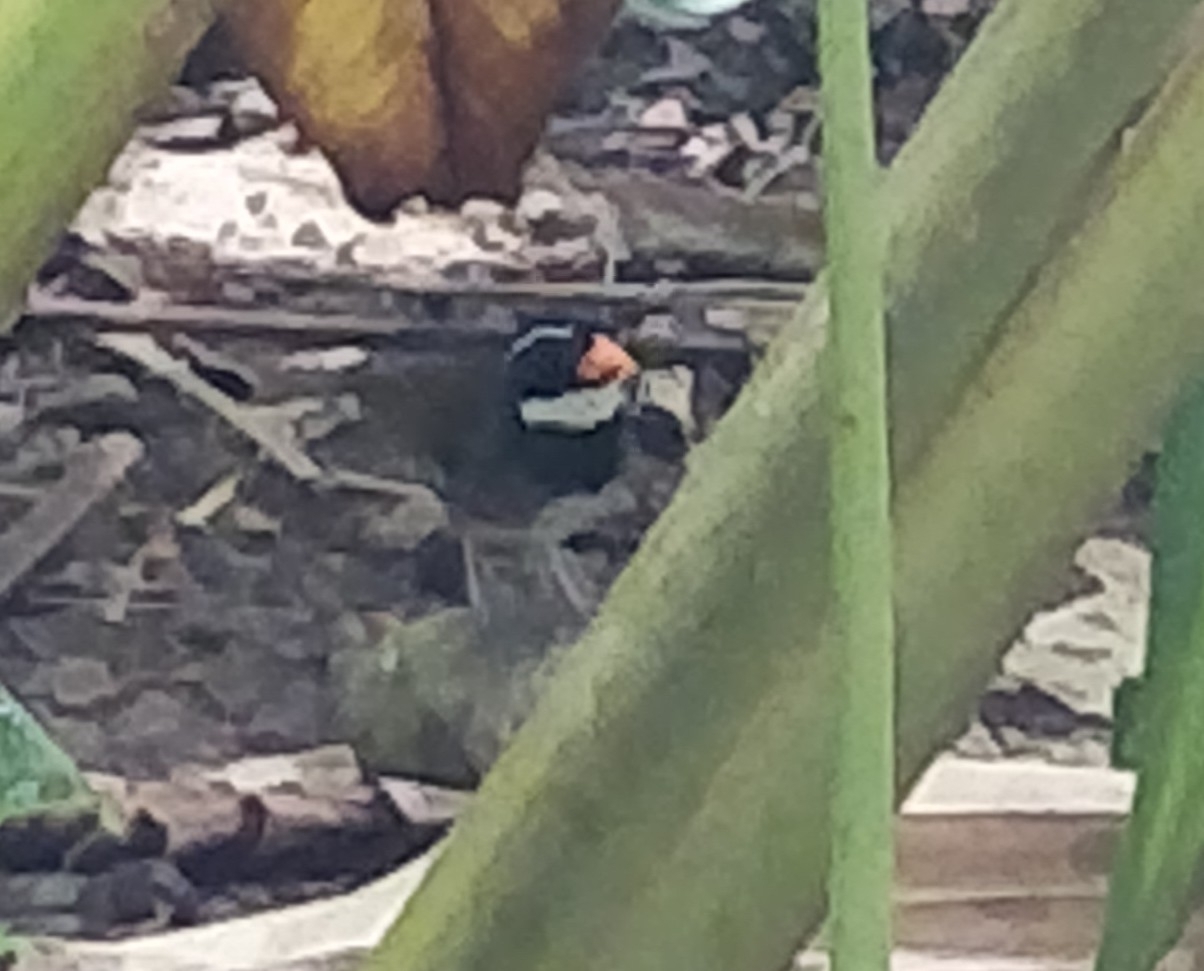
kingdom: Animalia
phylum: Chordata
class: Aves
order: Passeriformes
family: Passerellidae
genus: Arremon
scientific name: Arremon aurantiirostris
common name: Orange-billed sparrow
